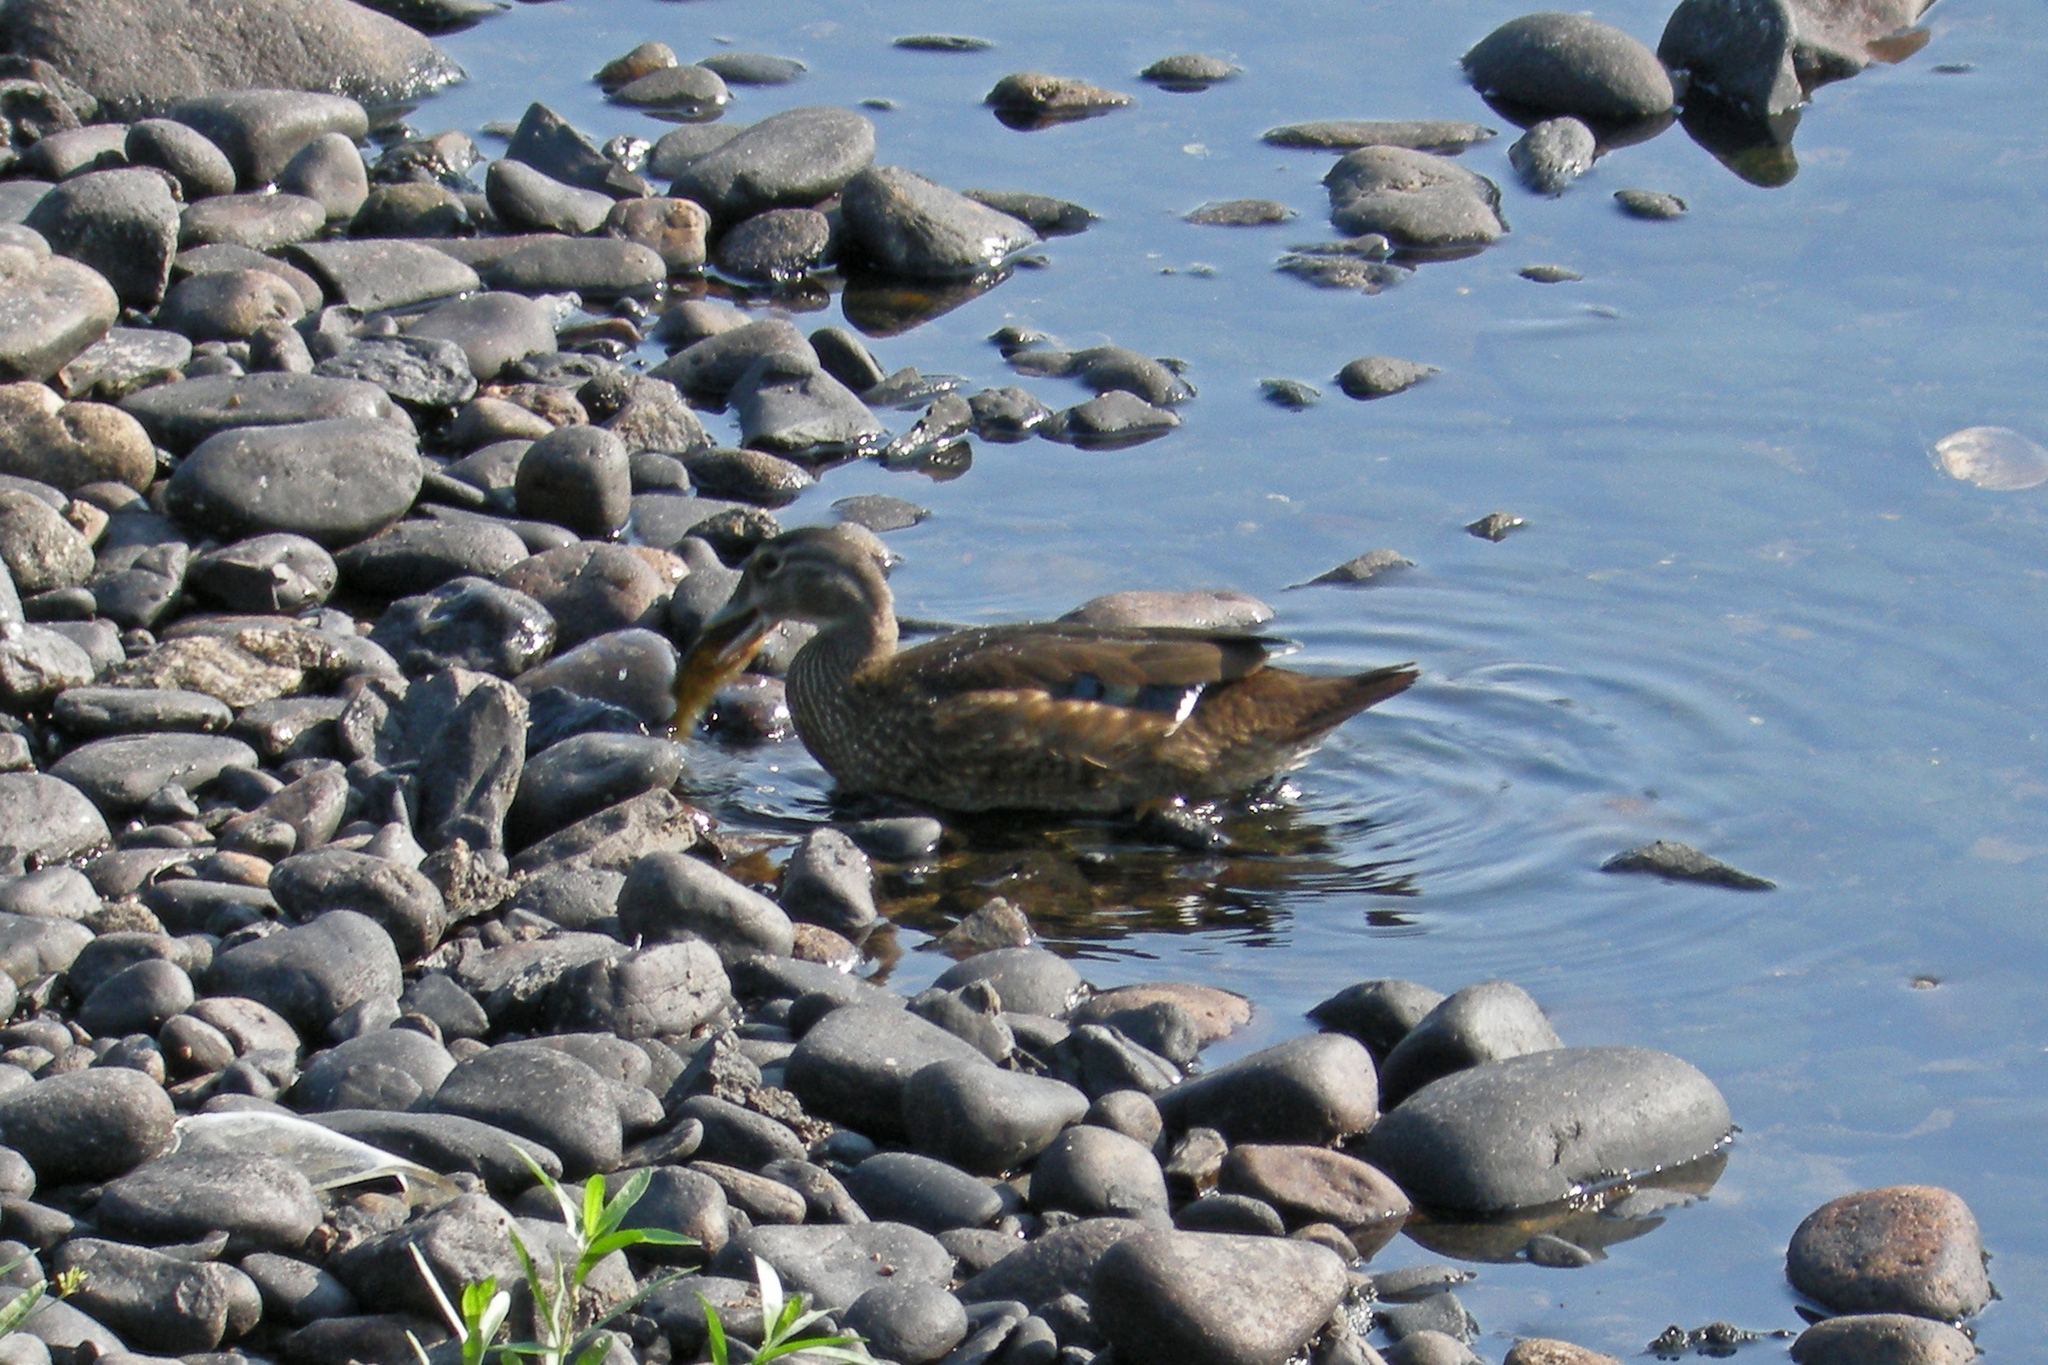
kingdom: Animalia
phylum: Chordata
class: Aves
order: Anseriformes
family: Anatidae
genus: Aix
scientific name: Aix sponsa
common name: Wood duck
